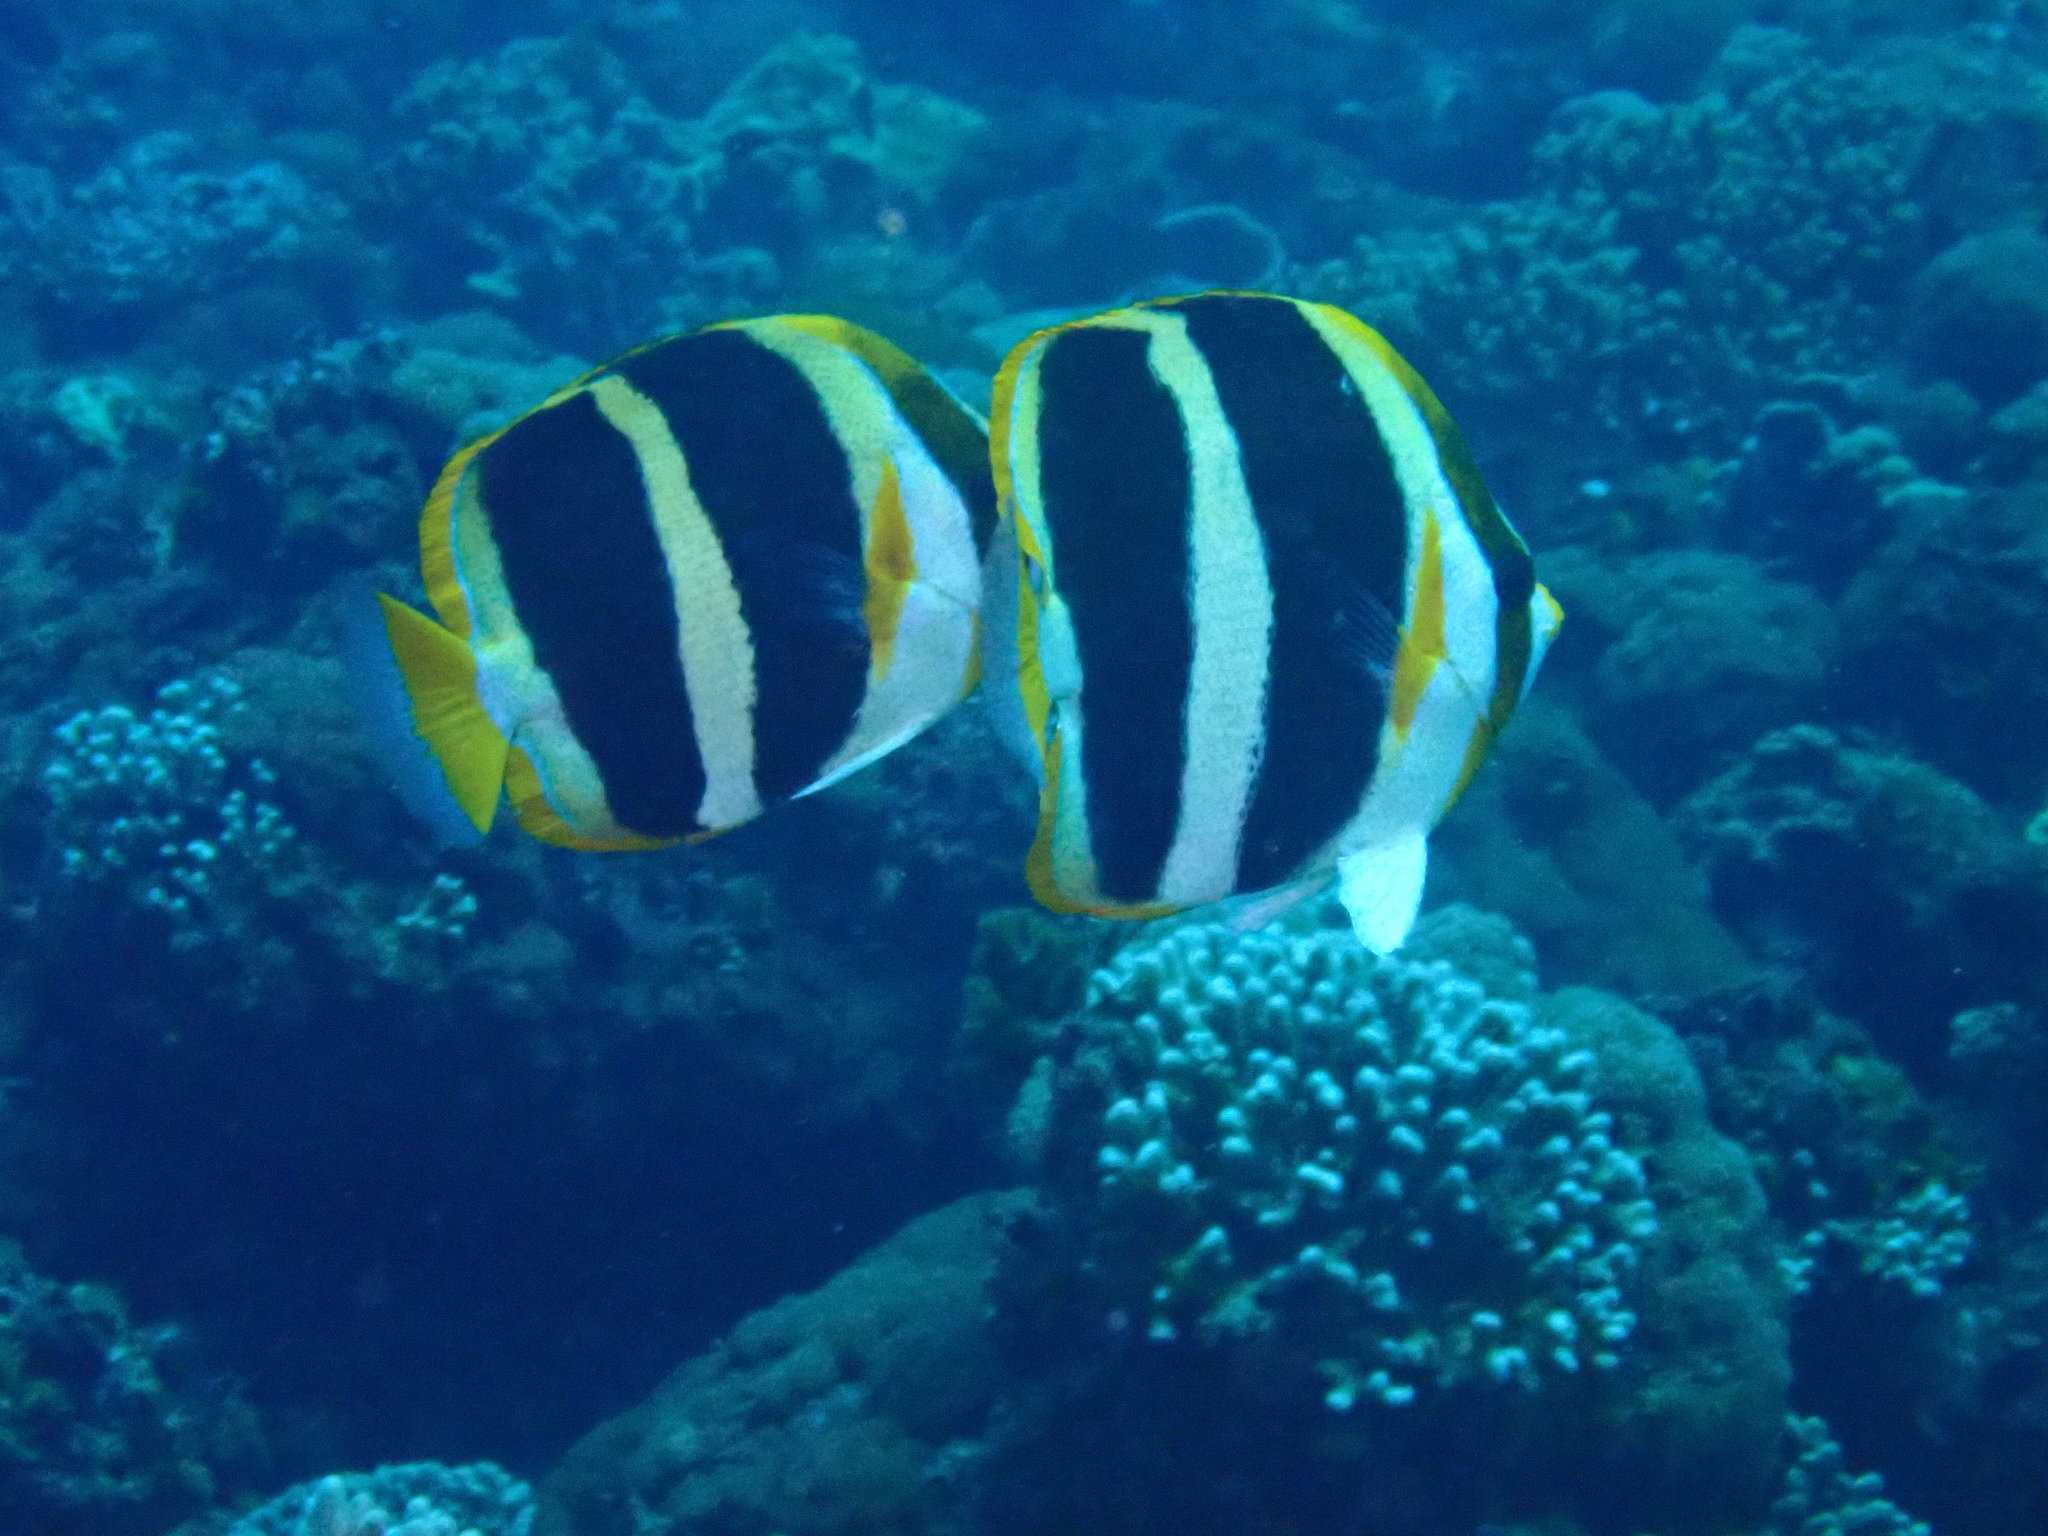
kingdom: Animalia
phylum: Chordata
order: Perciformes
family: Chaetodontidae
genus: Chaetodon
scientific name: Chaetodon tricinctus
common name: Three-striped butterflyfish
